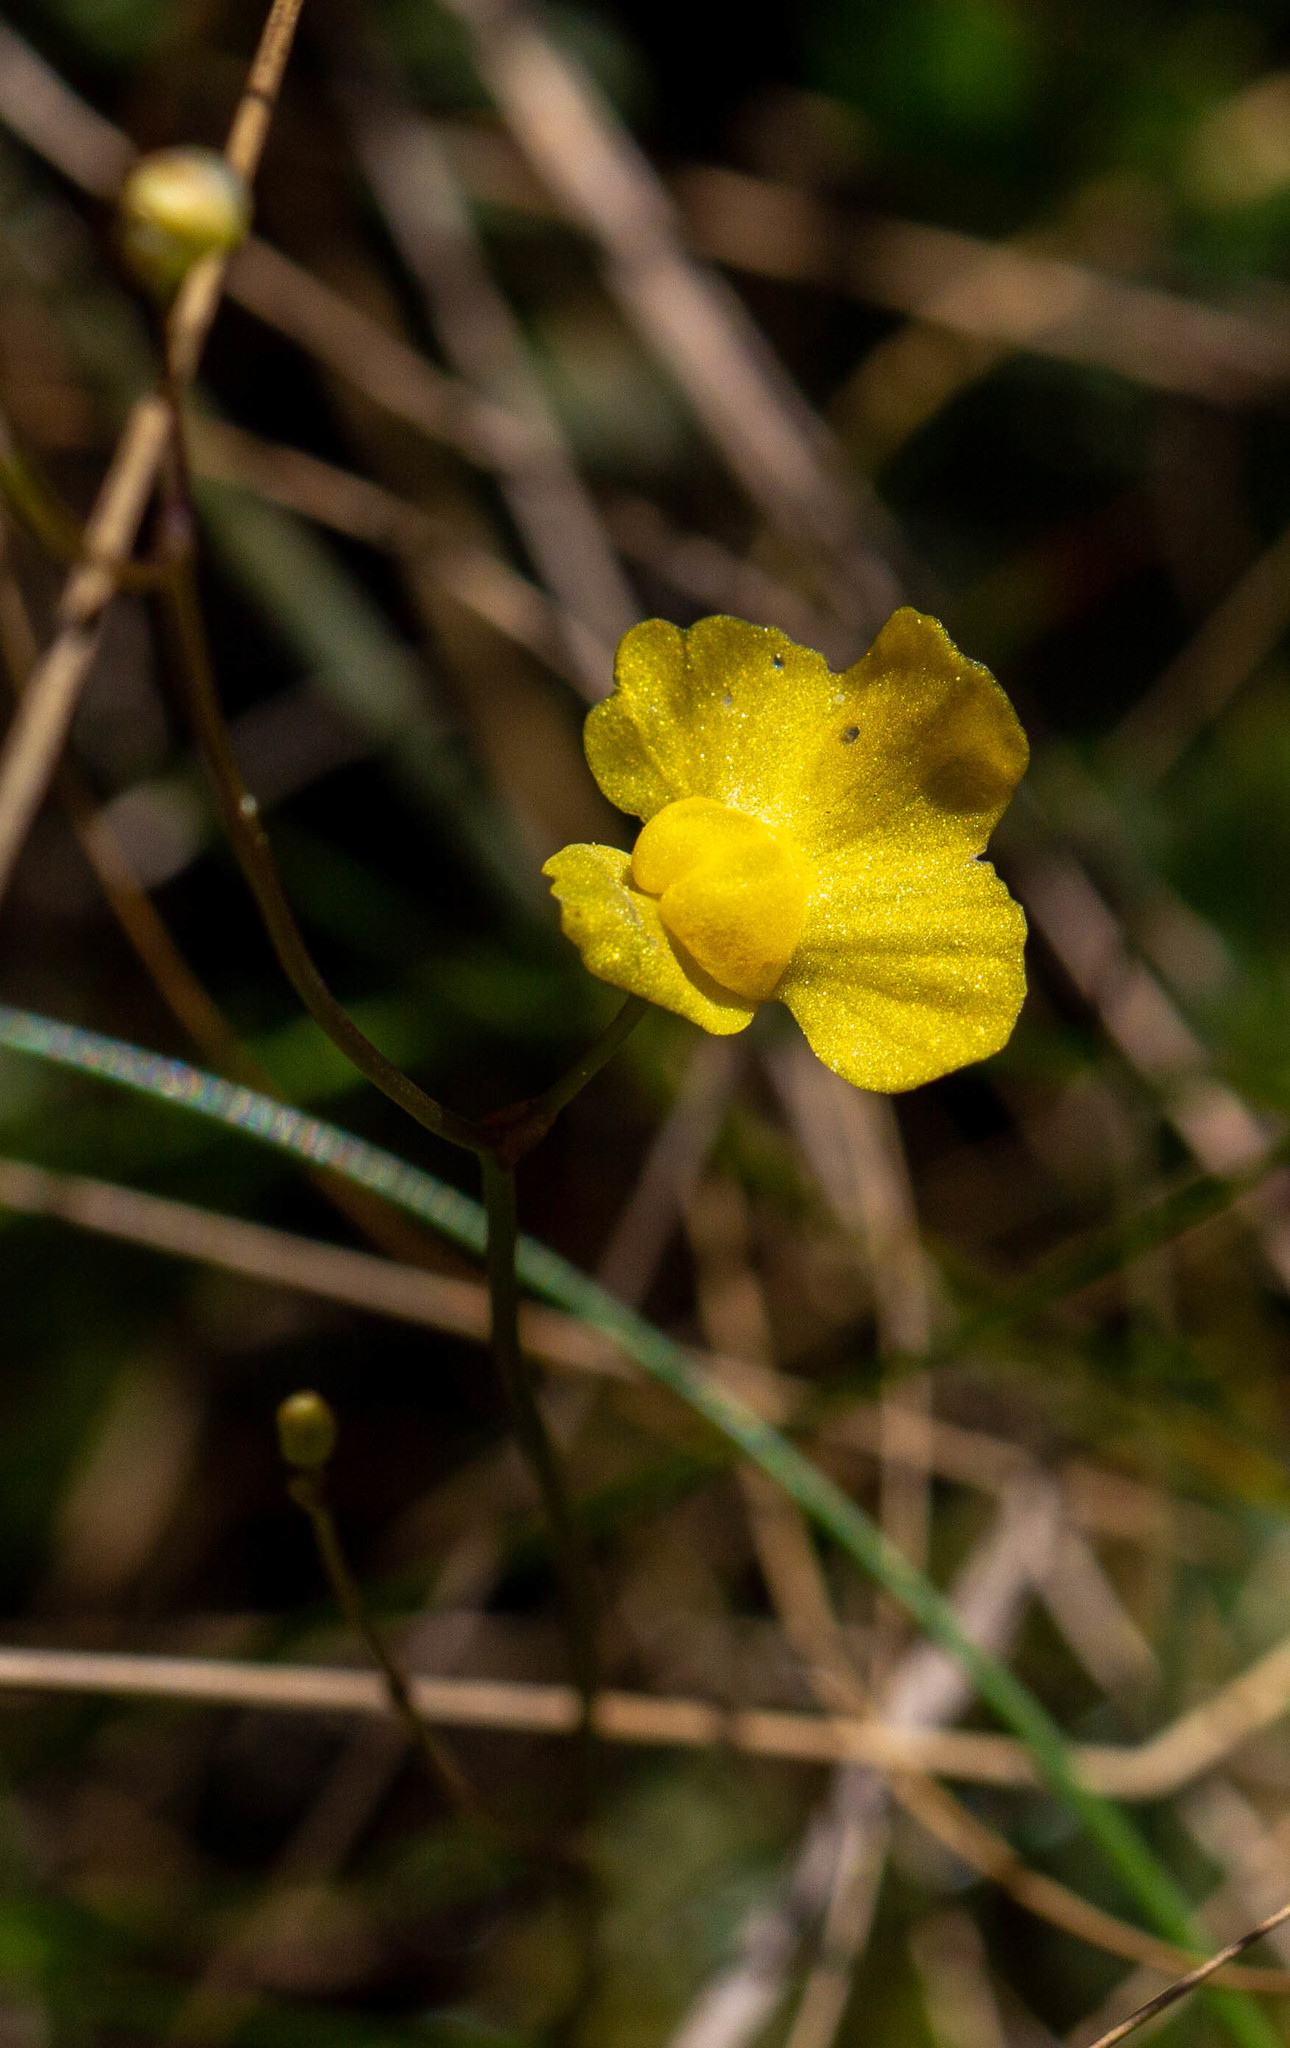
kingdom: Plantae
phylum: Tracheophyta
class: Magnoliopsida
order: Lamiales
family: Lentibulariaceae
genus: Utricularia
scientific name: Utricularia subulata
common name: Tiny bladderwort
